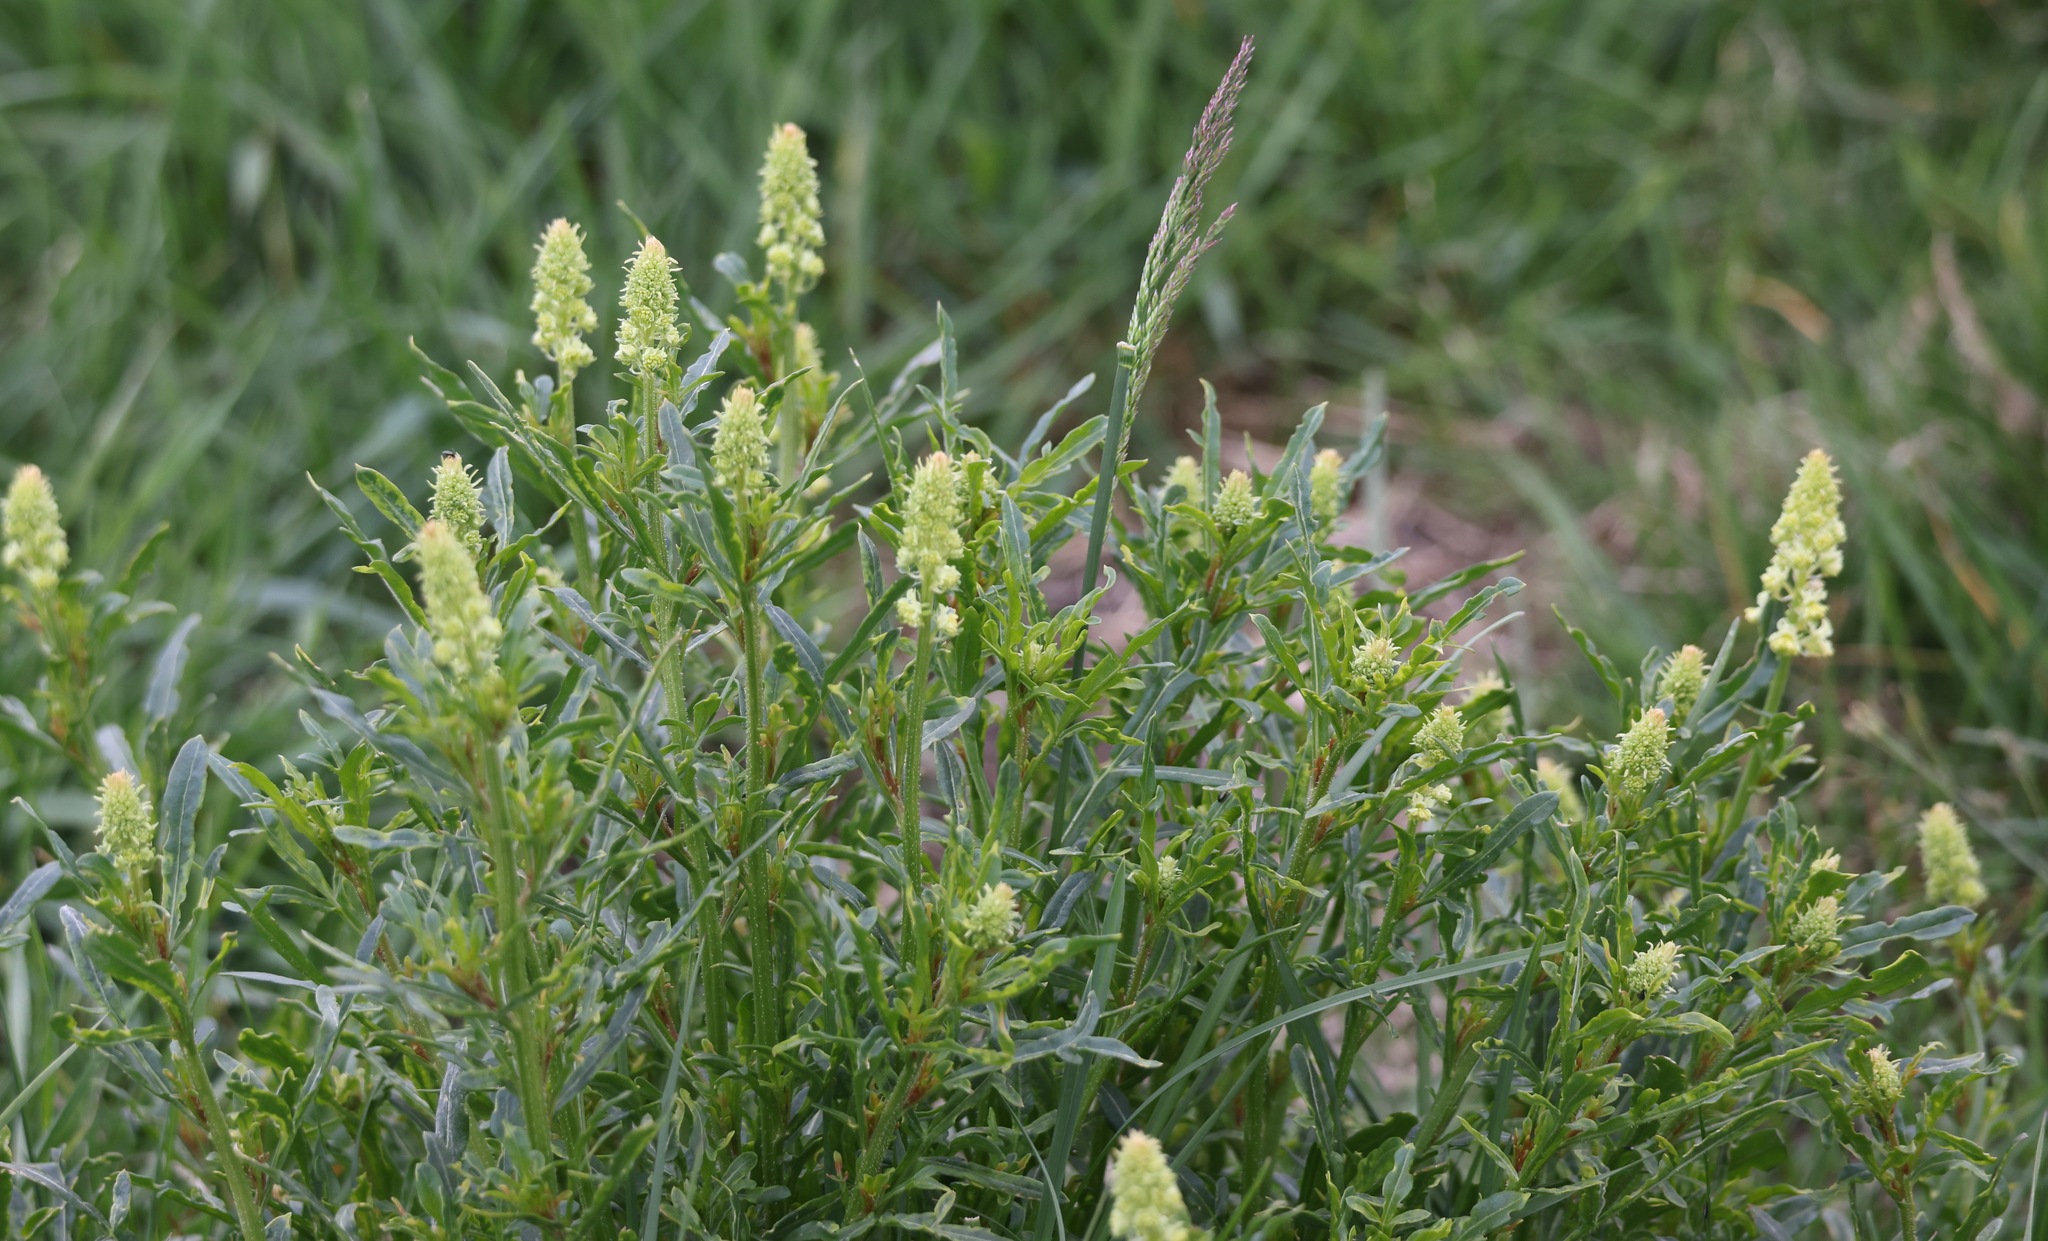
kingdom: Plantae
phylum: Tracheophyta
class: Magnoliopsida
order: Brassicales
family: Resedaceae
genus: Reseda
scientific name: Reseda lutea
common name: Wild mignonette
